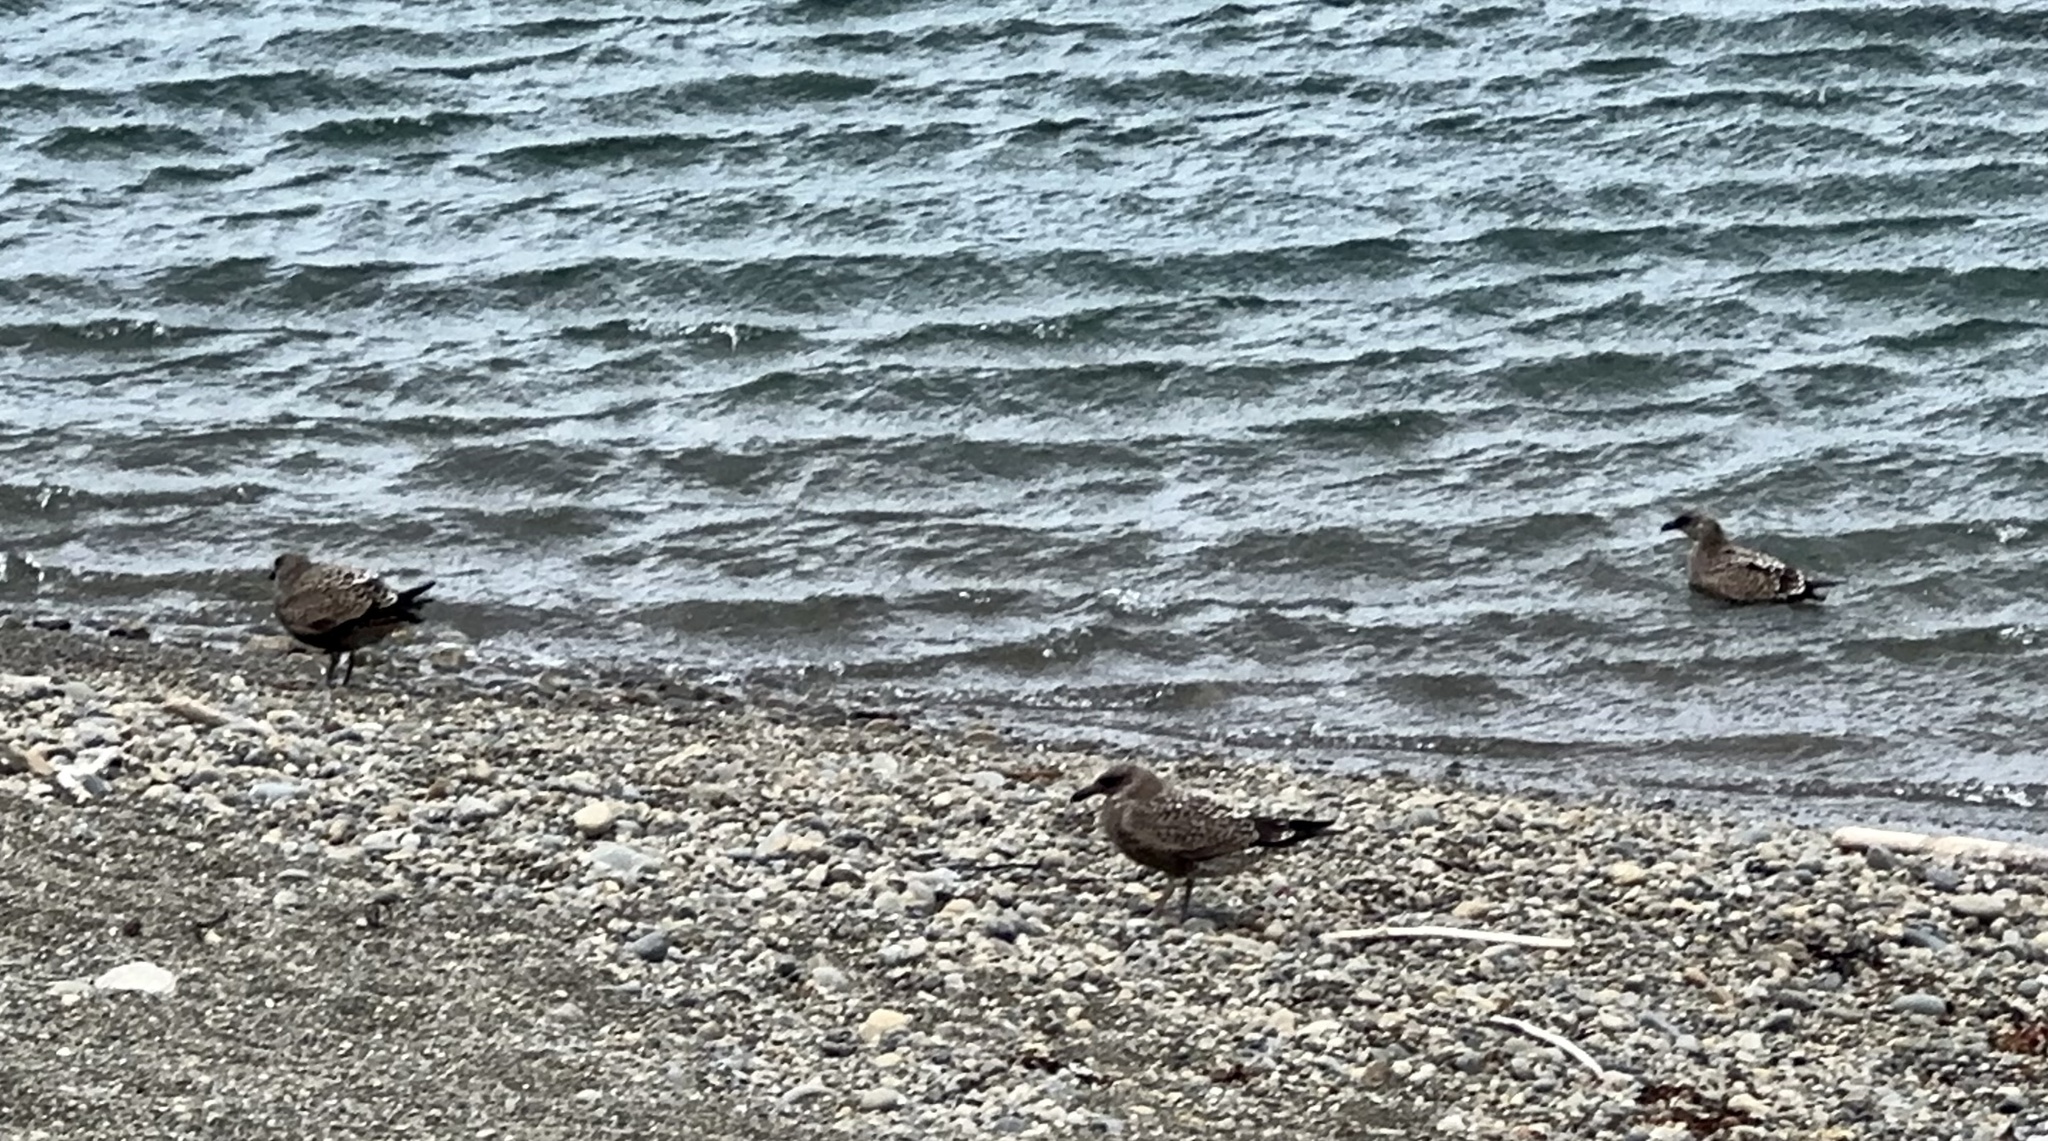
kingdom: Animalia
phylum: Chordata
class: Aves
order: Charadriiformes
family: Laridae
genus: Larus
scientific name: Larus dominicanus
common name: Kelp gull
